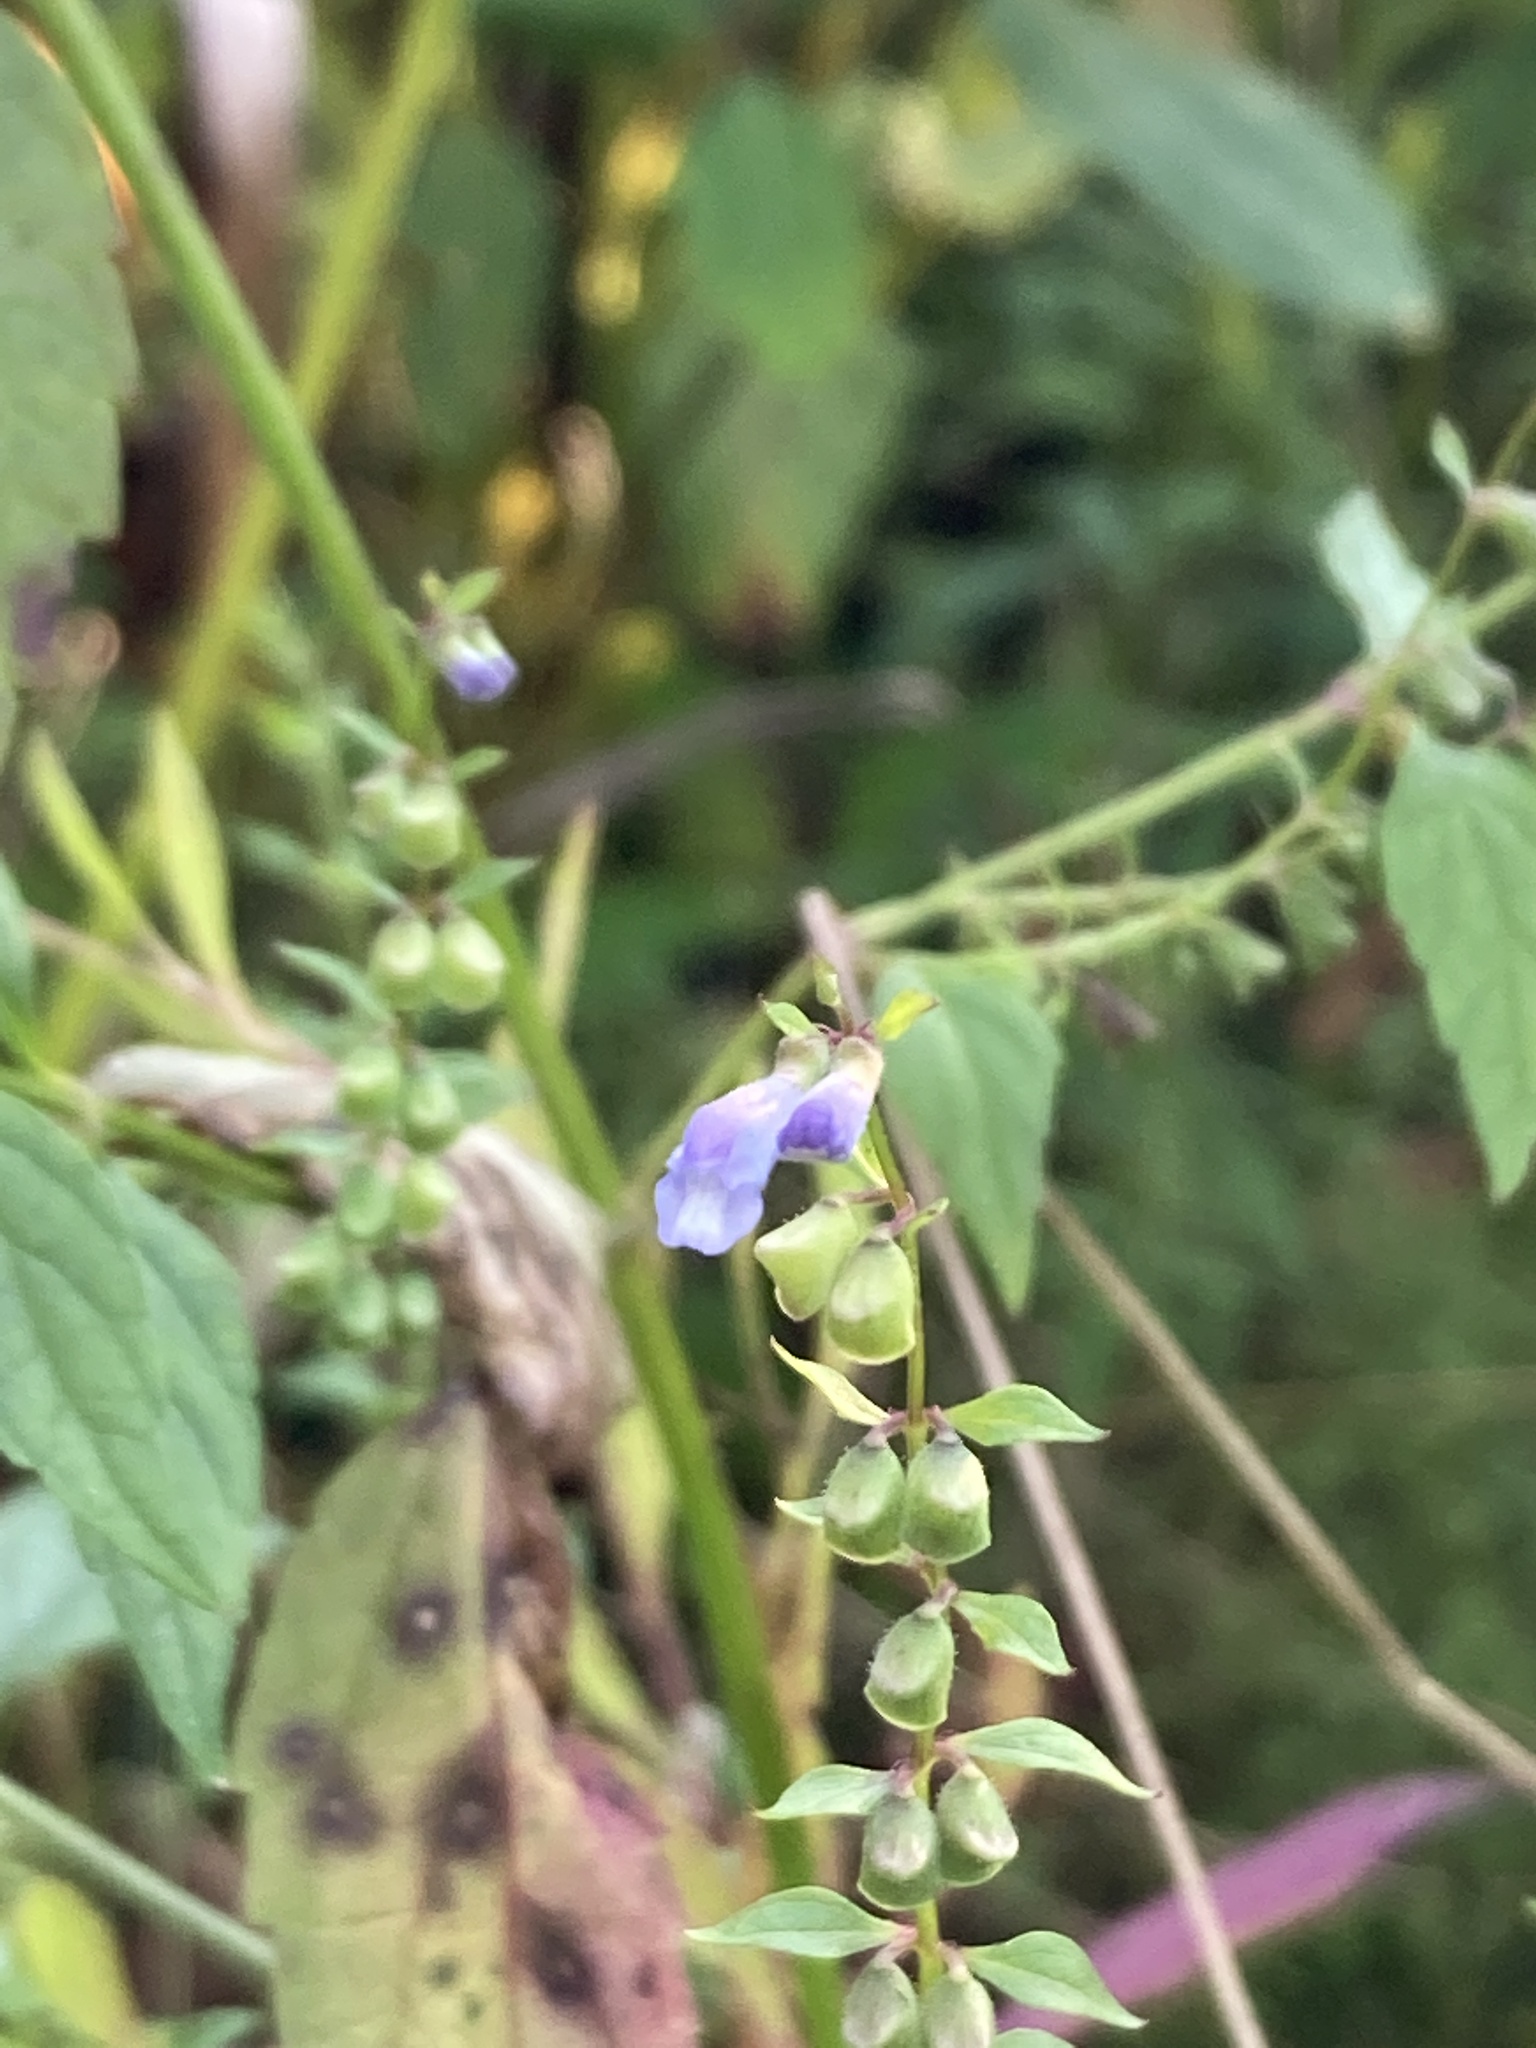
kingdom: Plantae
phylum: Tracheophyta
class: Magnoliopsida
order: Lamiales
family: Lamiaceae
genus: Scutellaria
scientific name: Scutellaria lateriflora
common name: Blue skullcap
